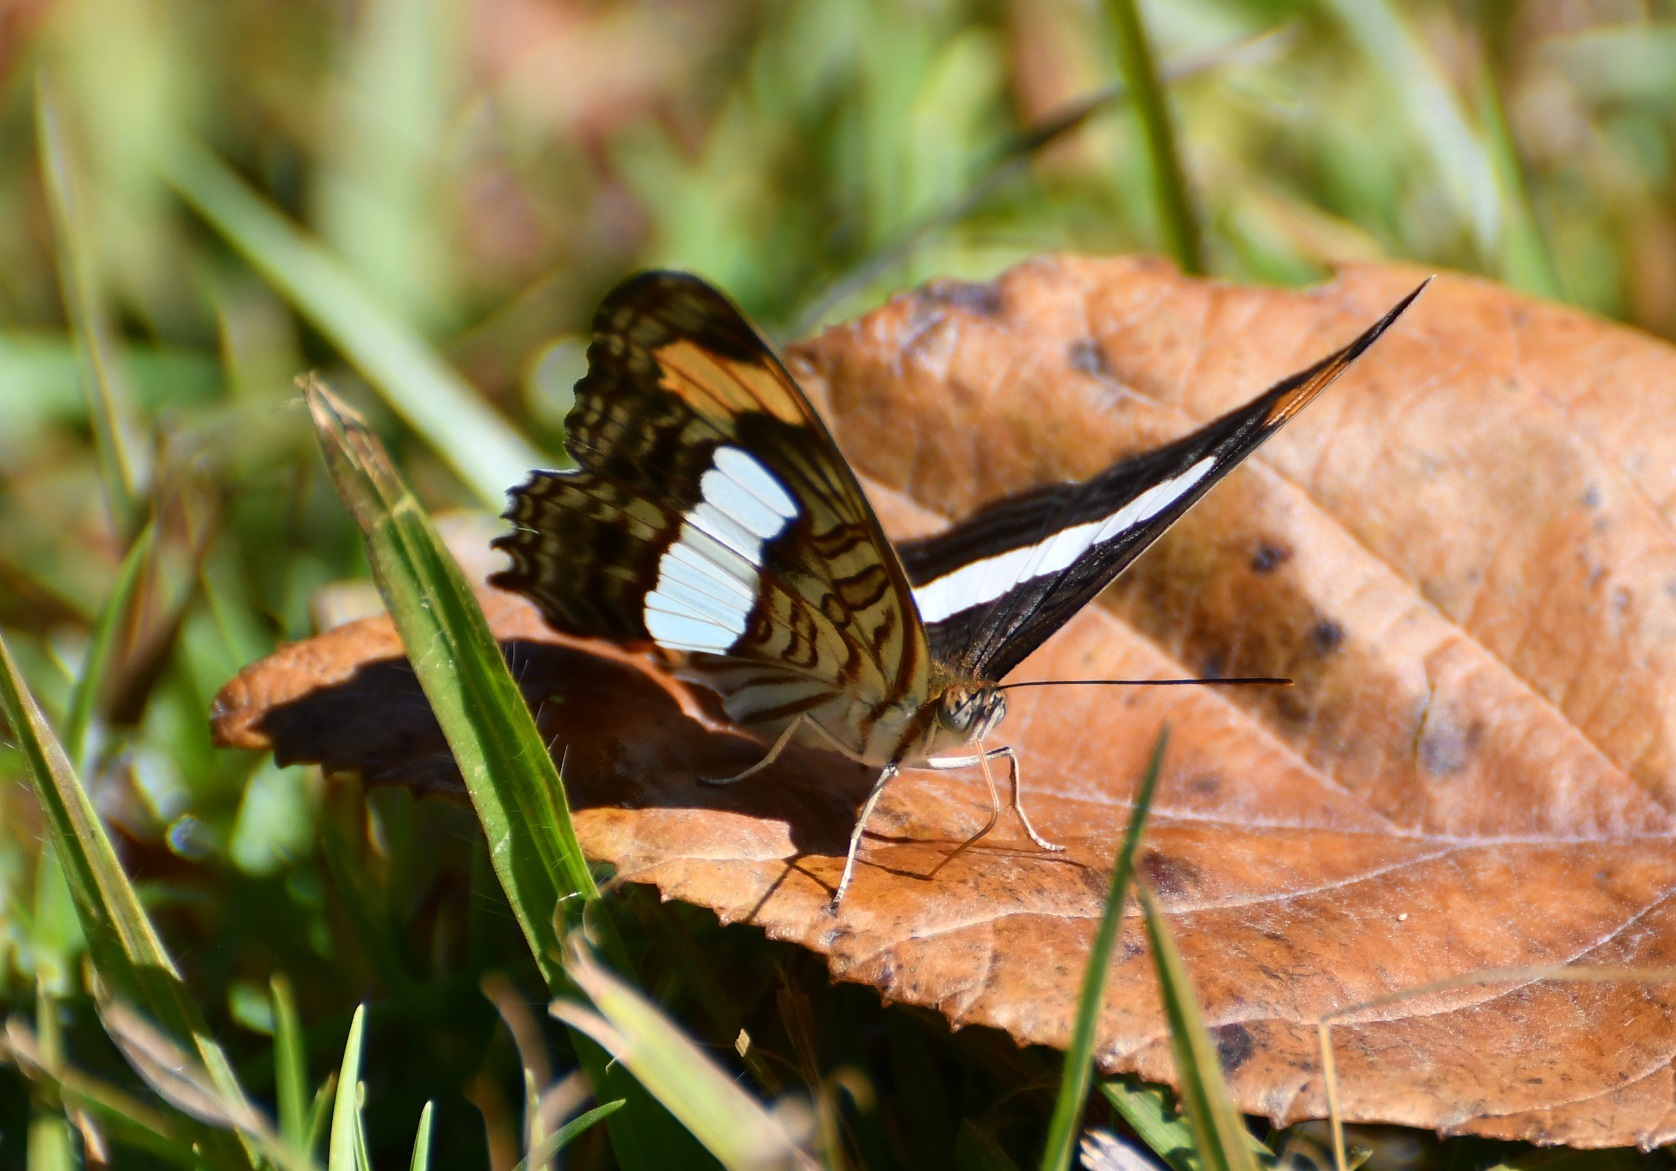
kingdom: Animalia
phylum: Arthropoda
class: Insecta
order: Lepidoptera
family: Nymphalidae
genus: Limenitis
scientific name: Limenitis iphiclus
